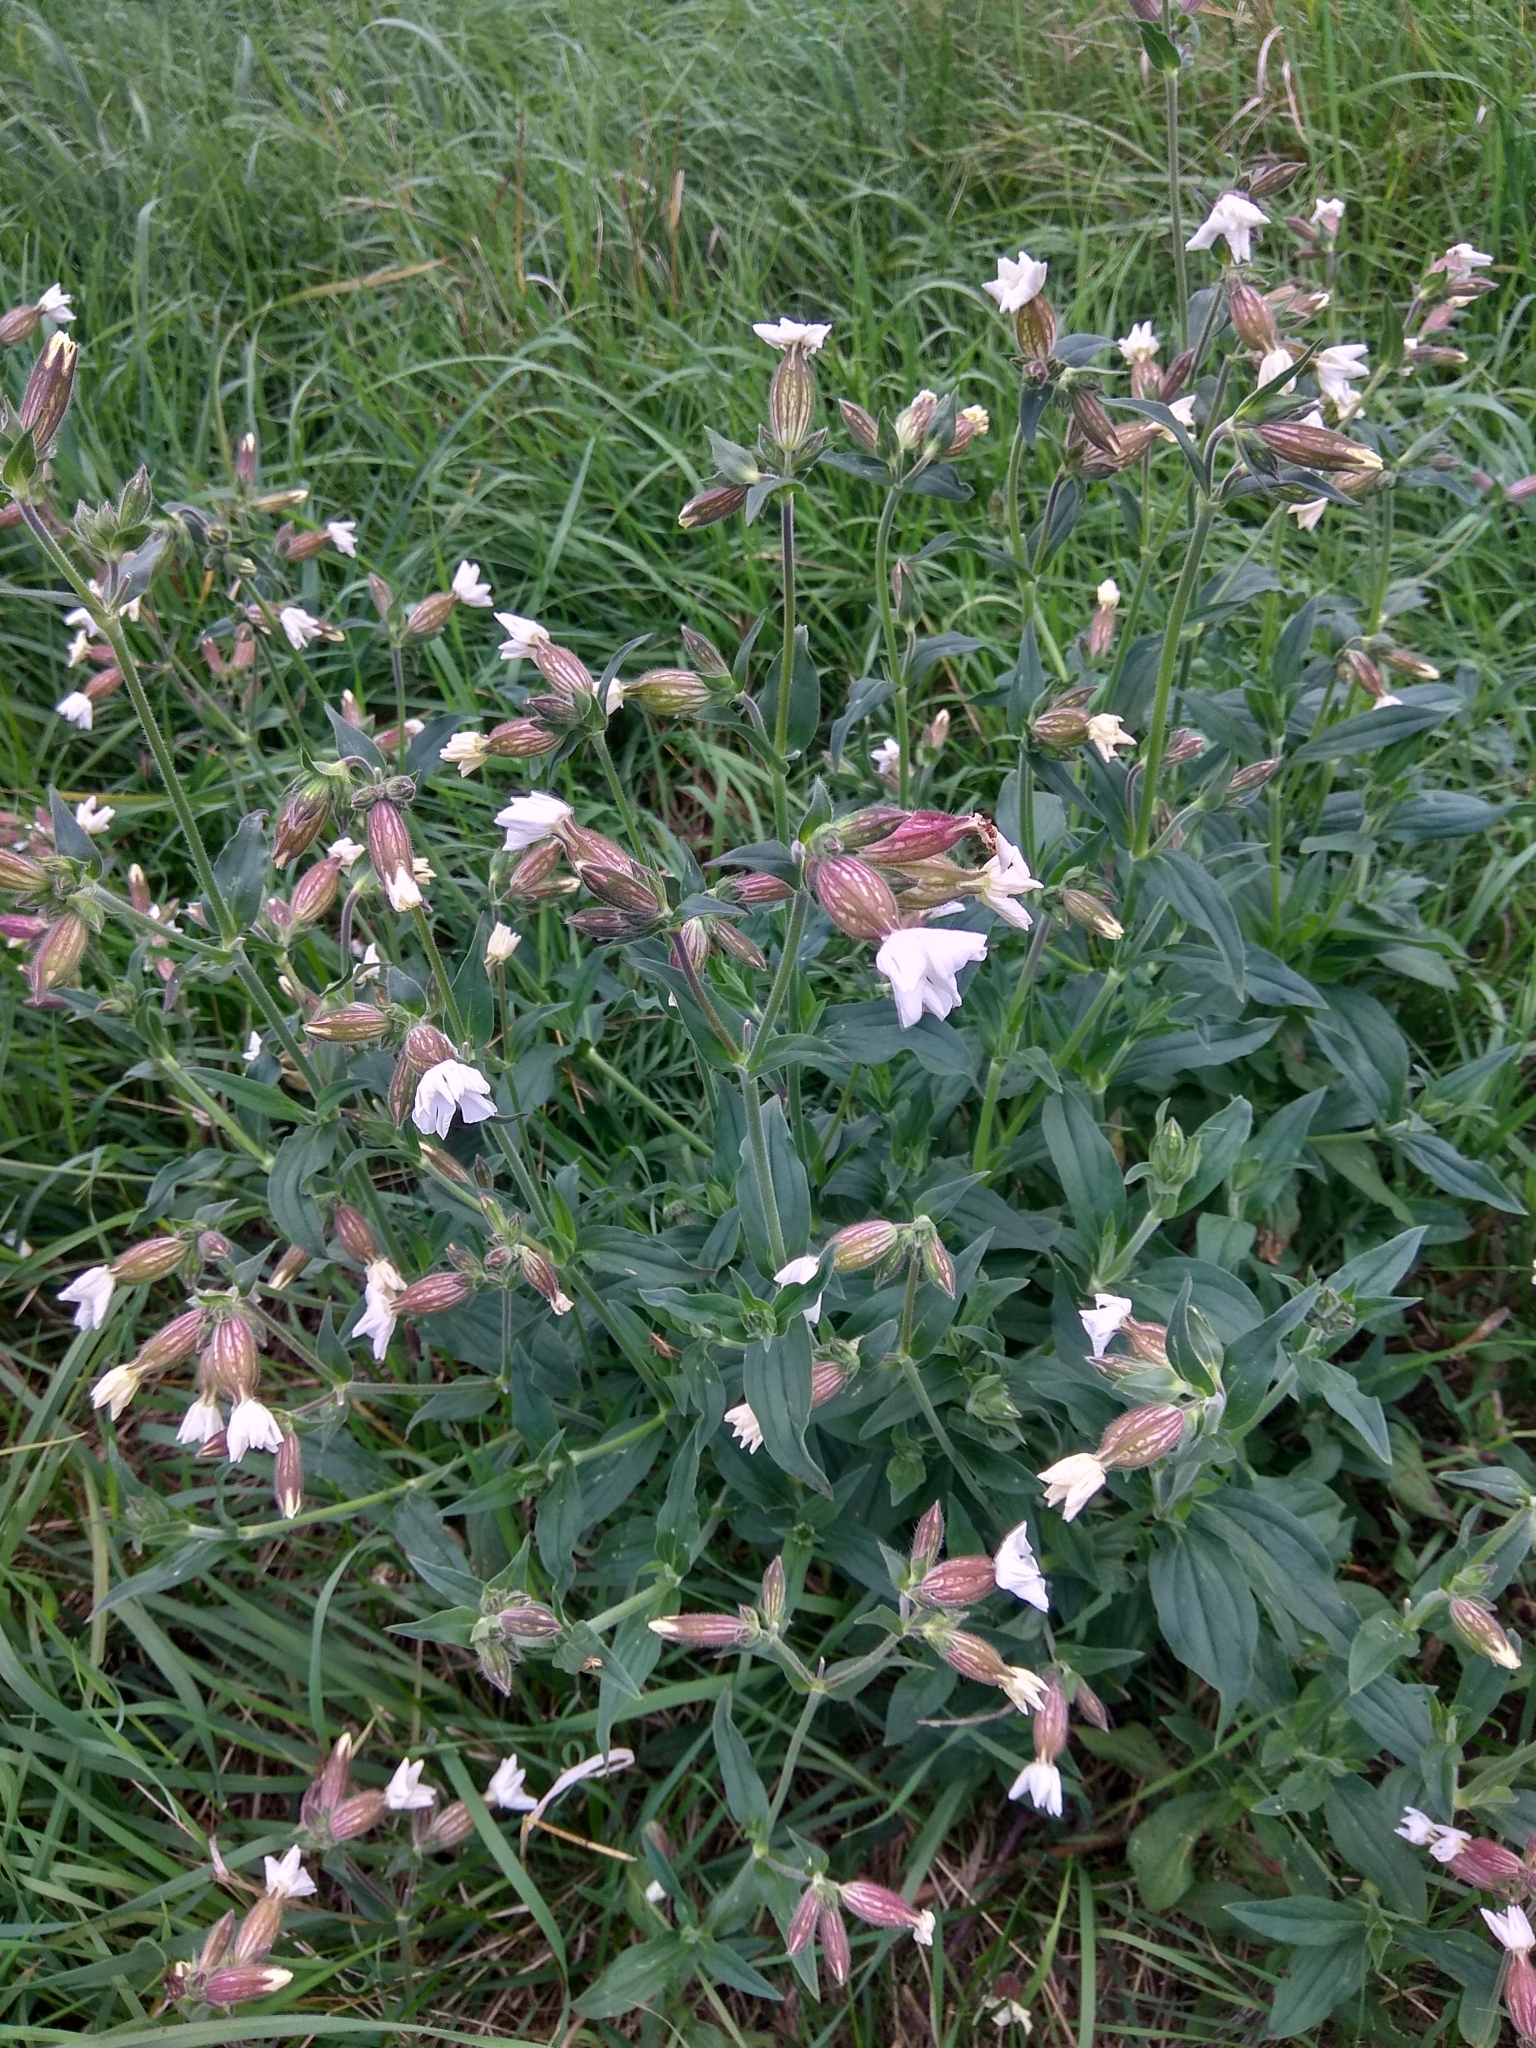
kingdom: Plantae
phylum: Tracheophyta
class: Magnoliopsida
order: Caryophyllales
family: Caryophyllaceae
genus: Silene
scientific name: Silene latifolia
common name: White campion
